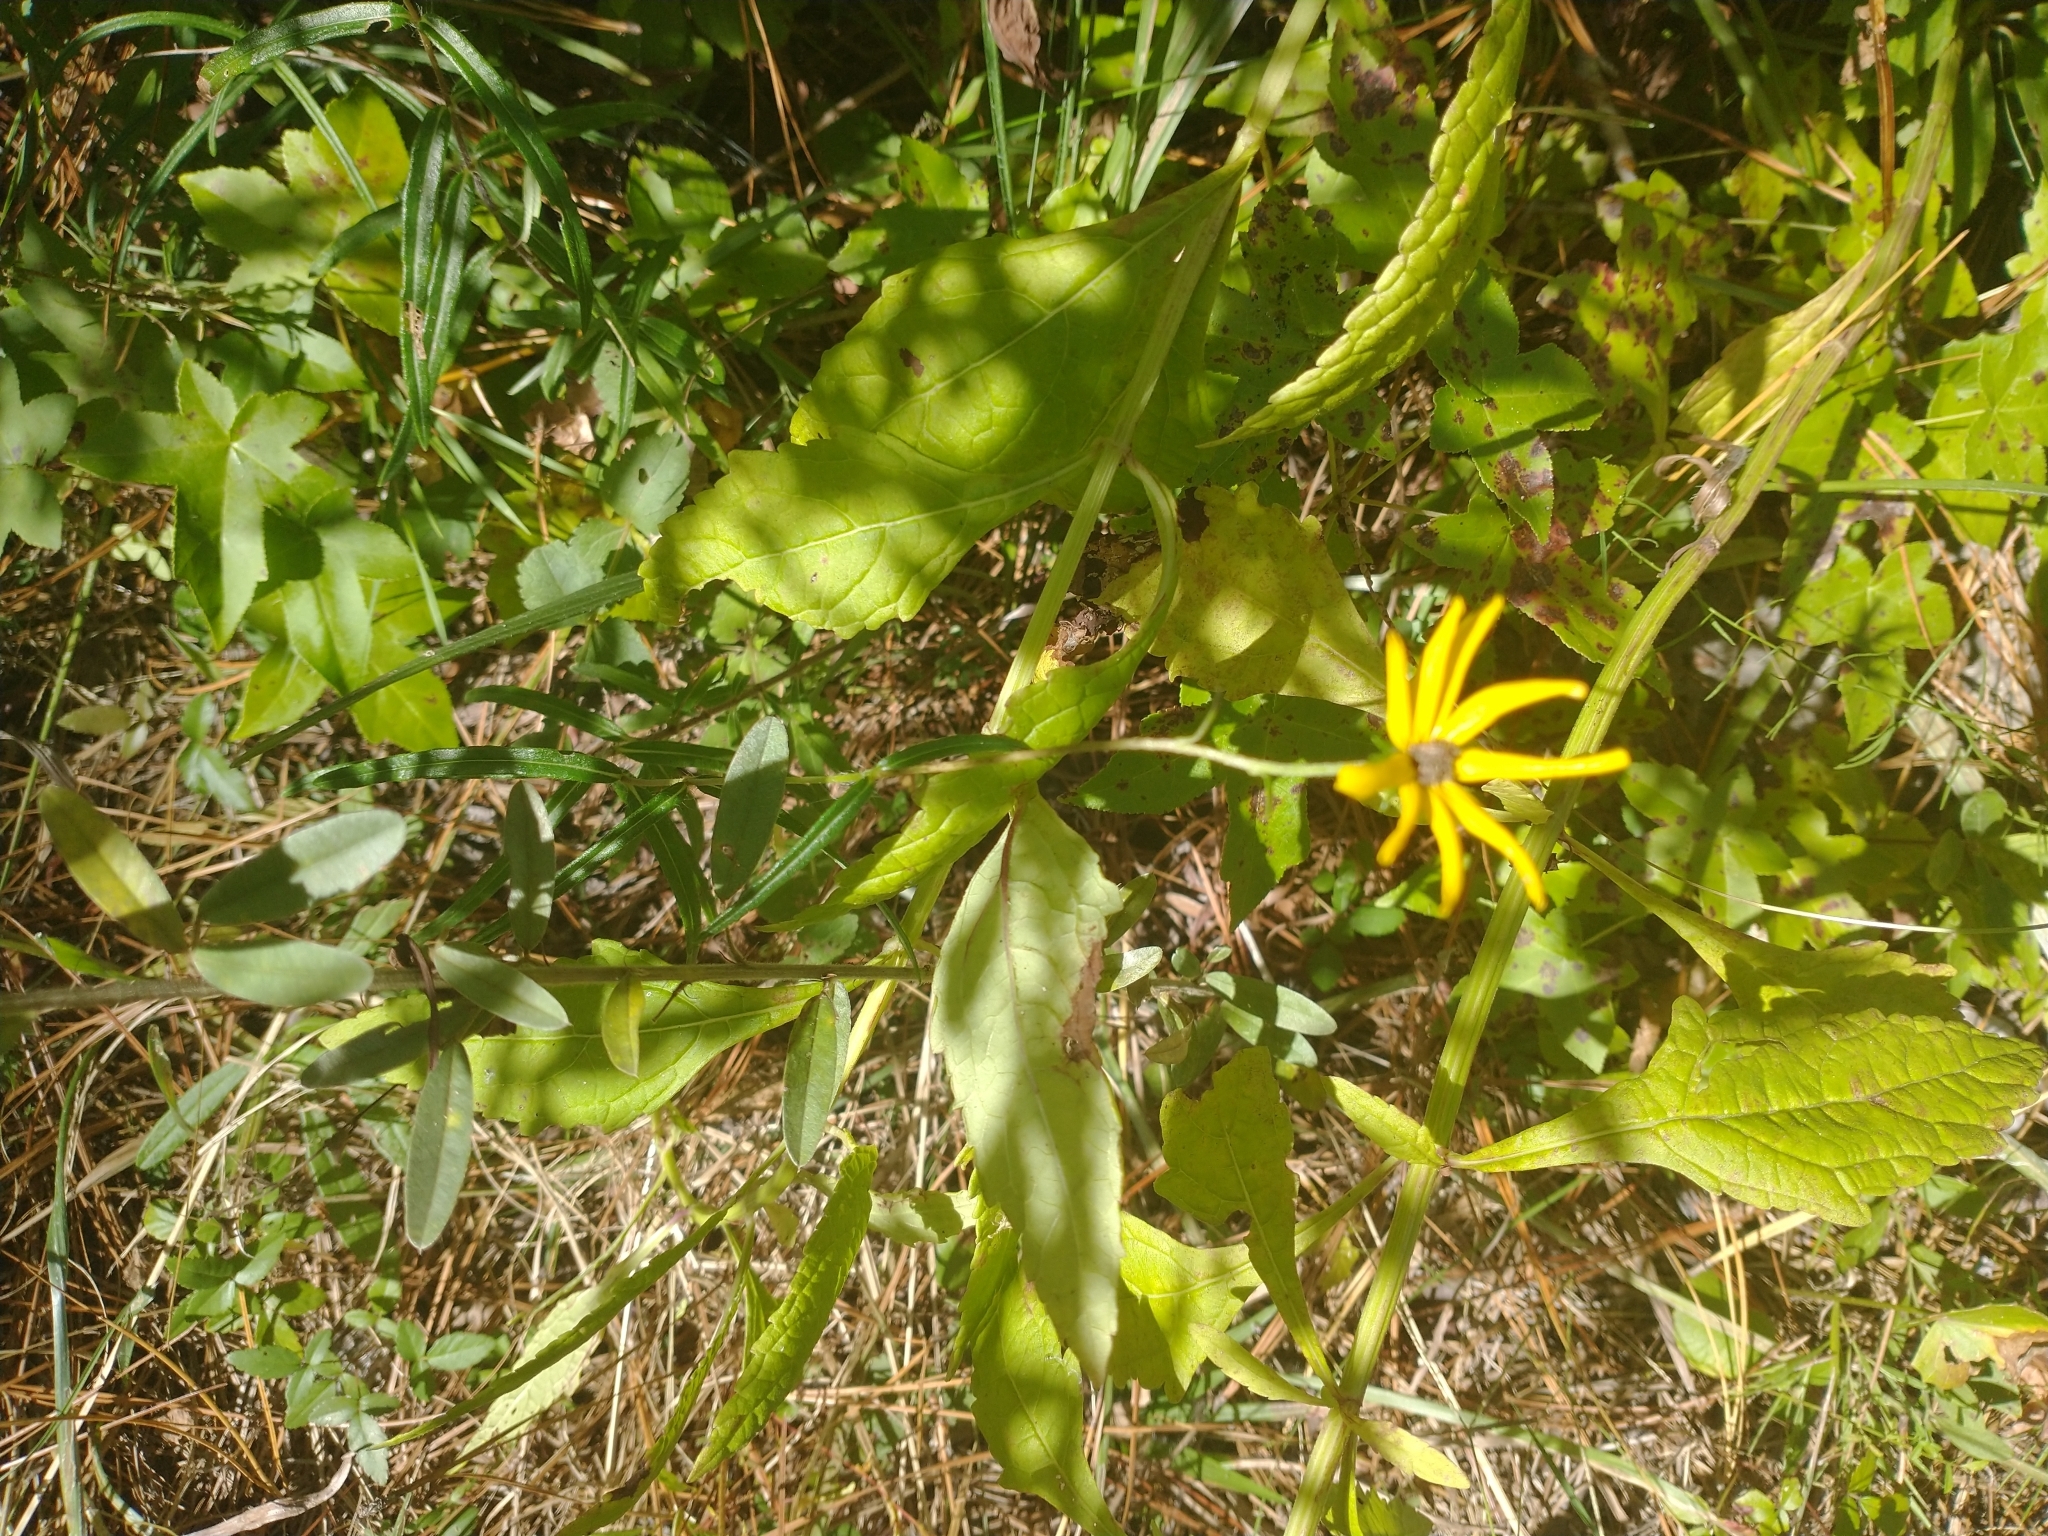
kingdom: Plantae
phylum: Tracheophyta
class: Magnoliopsida
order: Asterales
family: Asteraceae
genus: Helianthus
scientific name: Helianthus angustifolius
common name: Swamp sunflower
